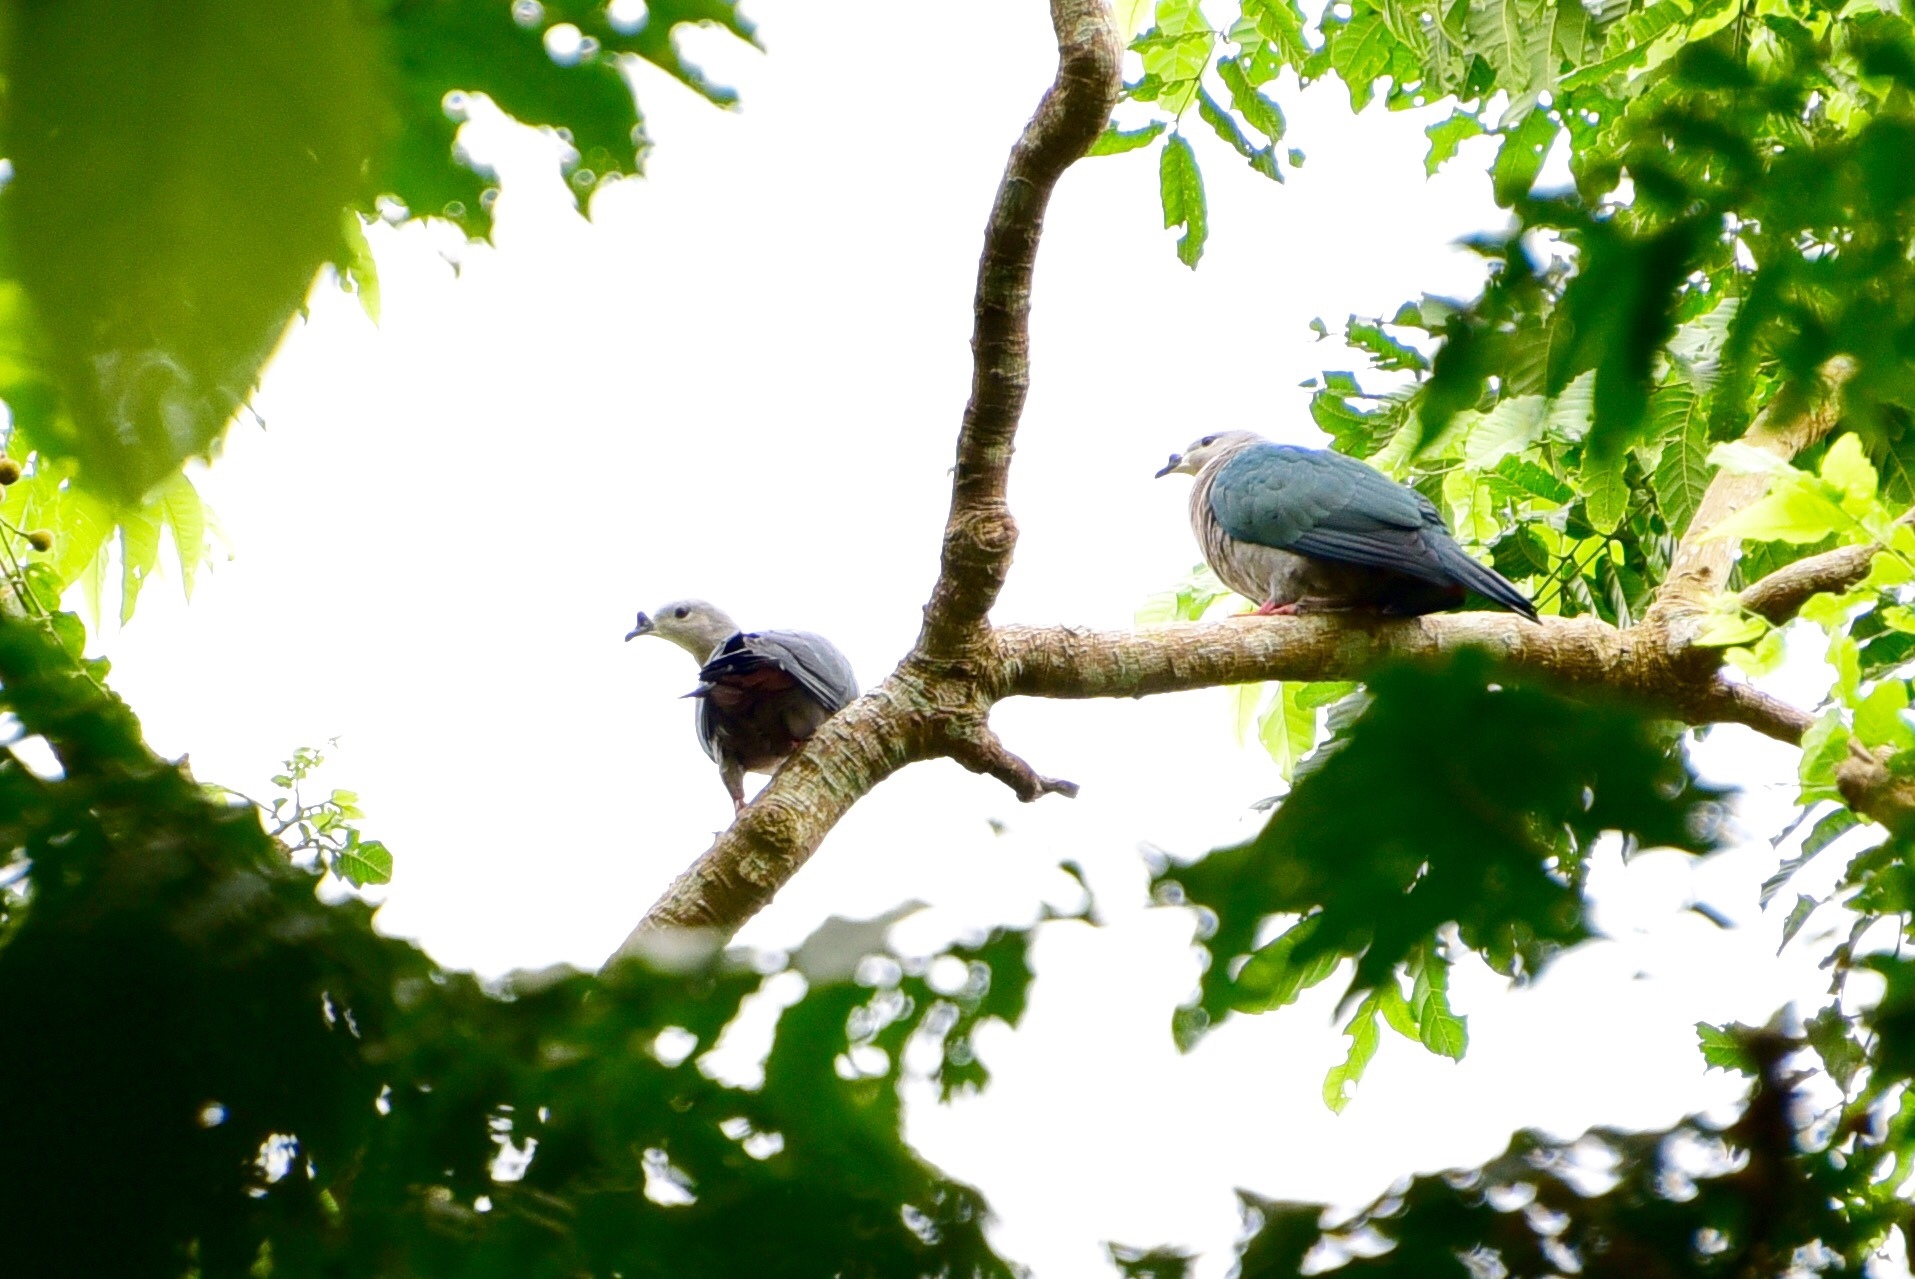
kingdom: Animalia
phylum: Chordata
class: Aves
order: Columbiformes
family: Columbidae
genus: Ducula
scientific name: Ducula pacifica
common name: Pacific imperial-pigeon
